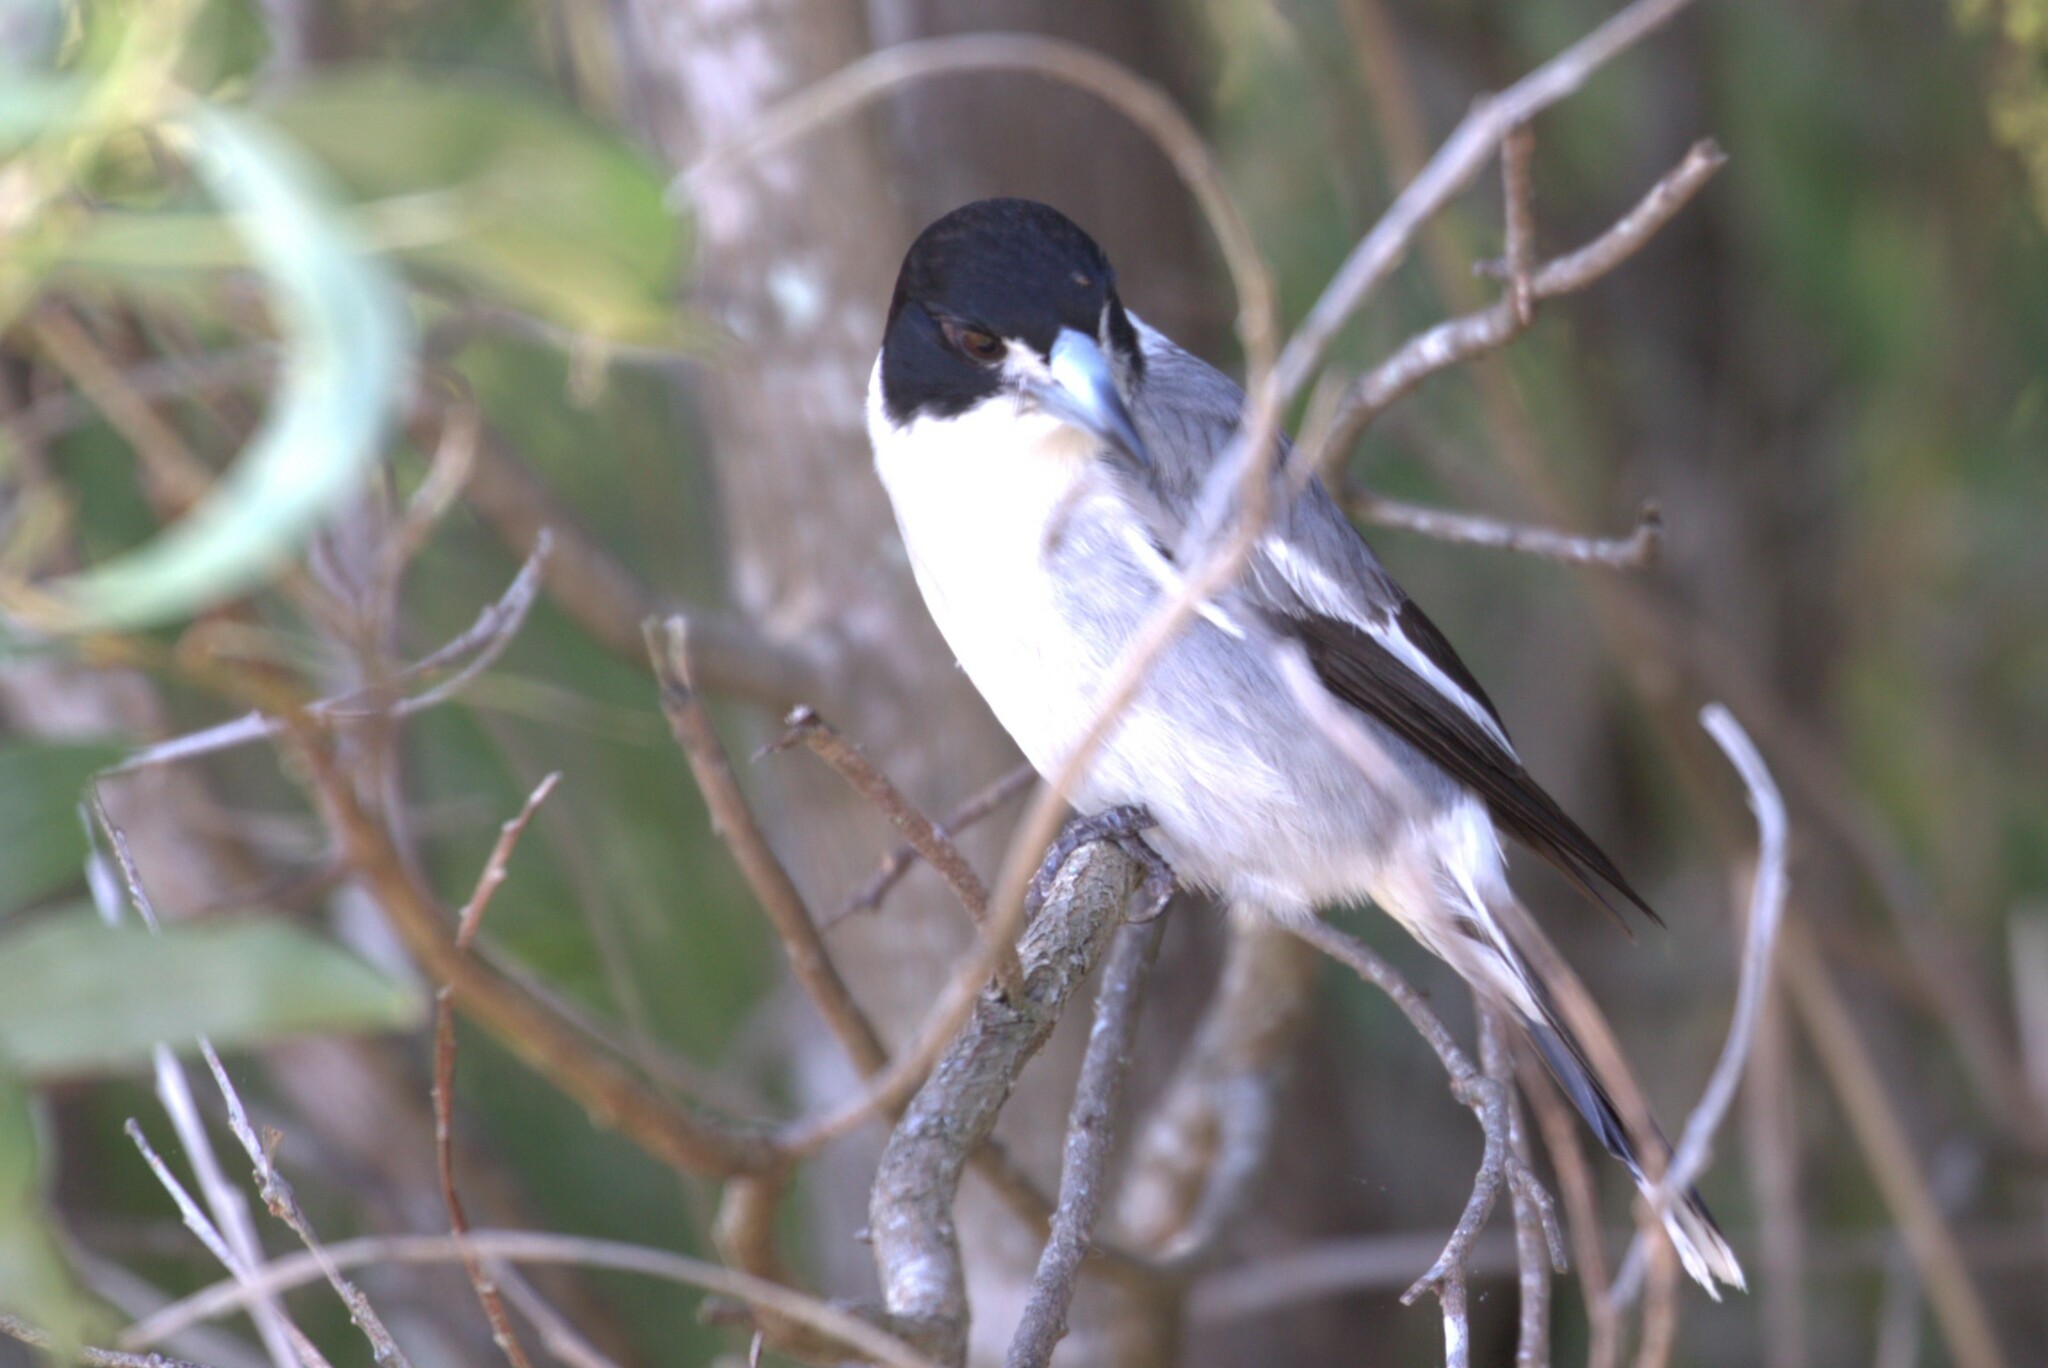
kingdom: Animalia
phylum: Chordata
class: Aves
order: Passeriformes
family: Cracticidae
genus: Cracticus
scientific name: Cracticus torquatus
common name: Grey butcherbird
